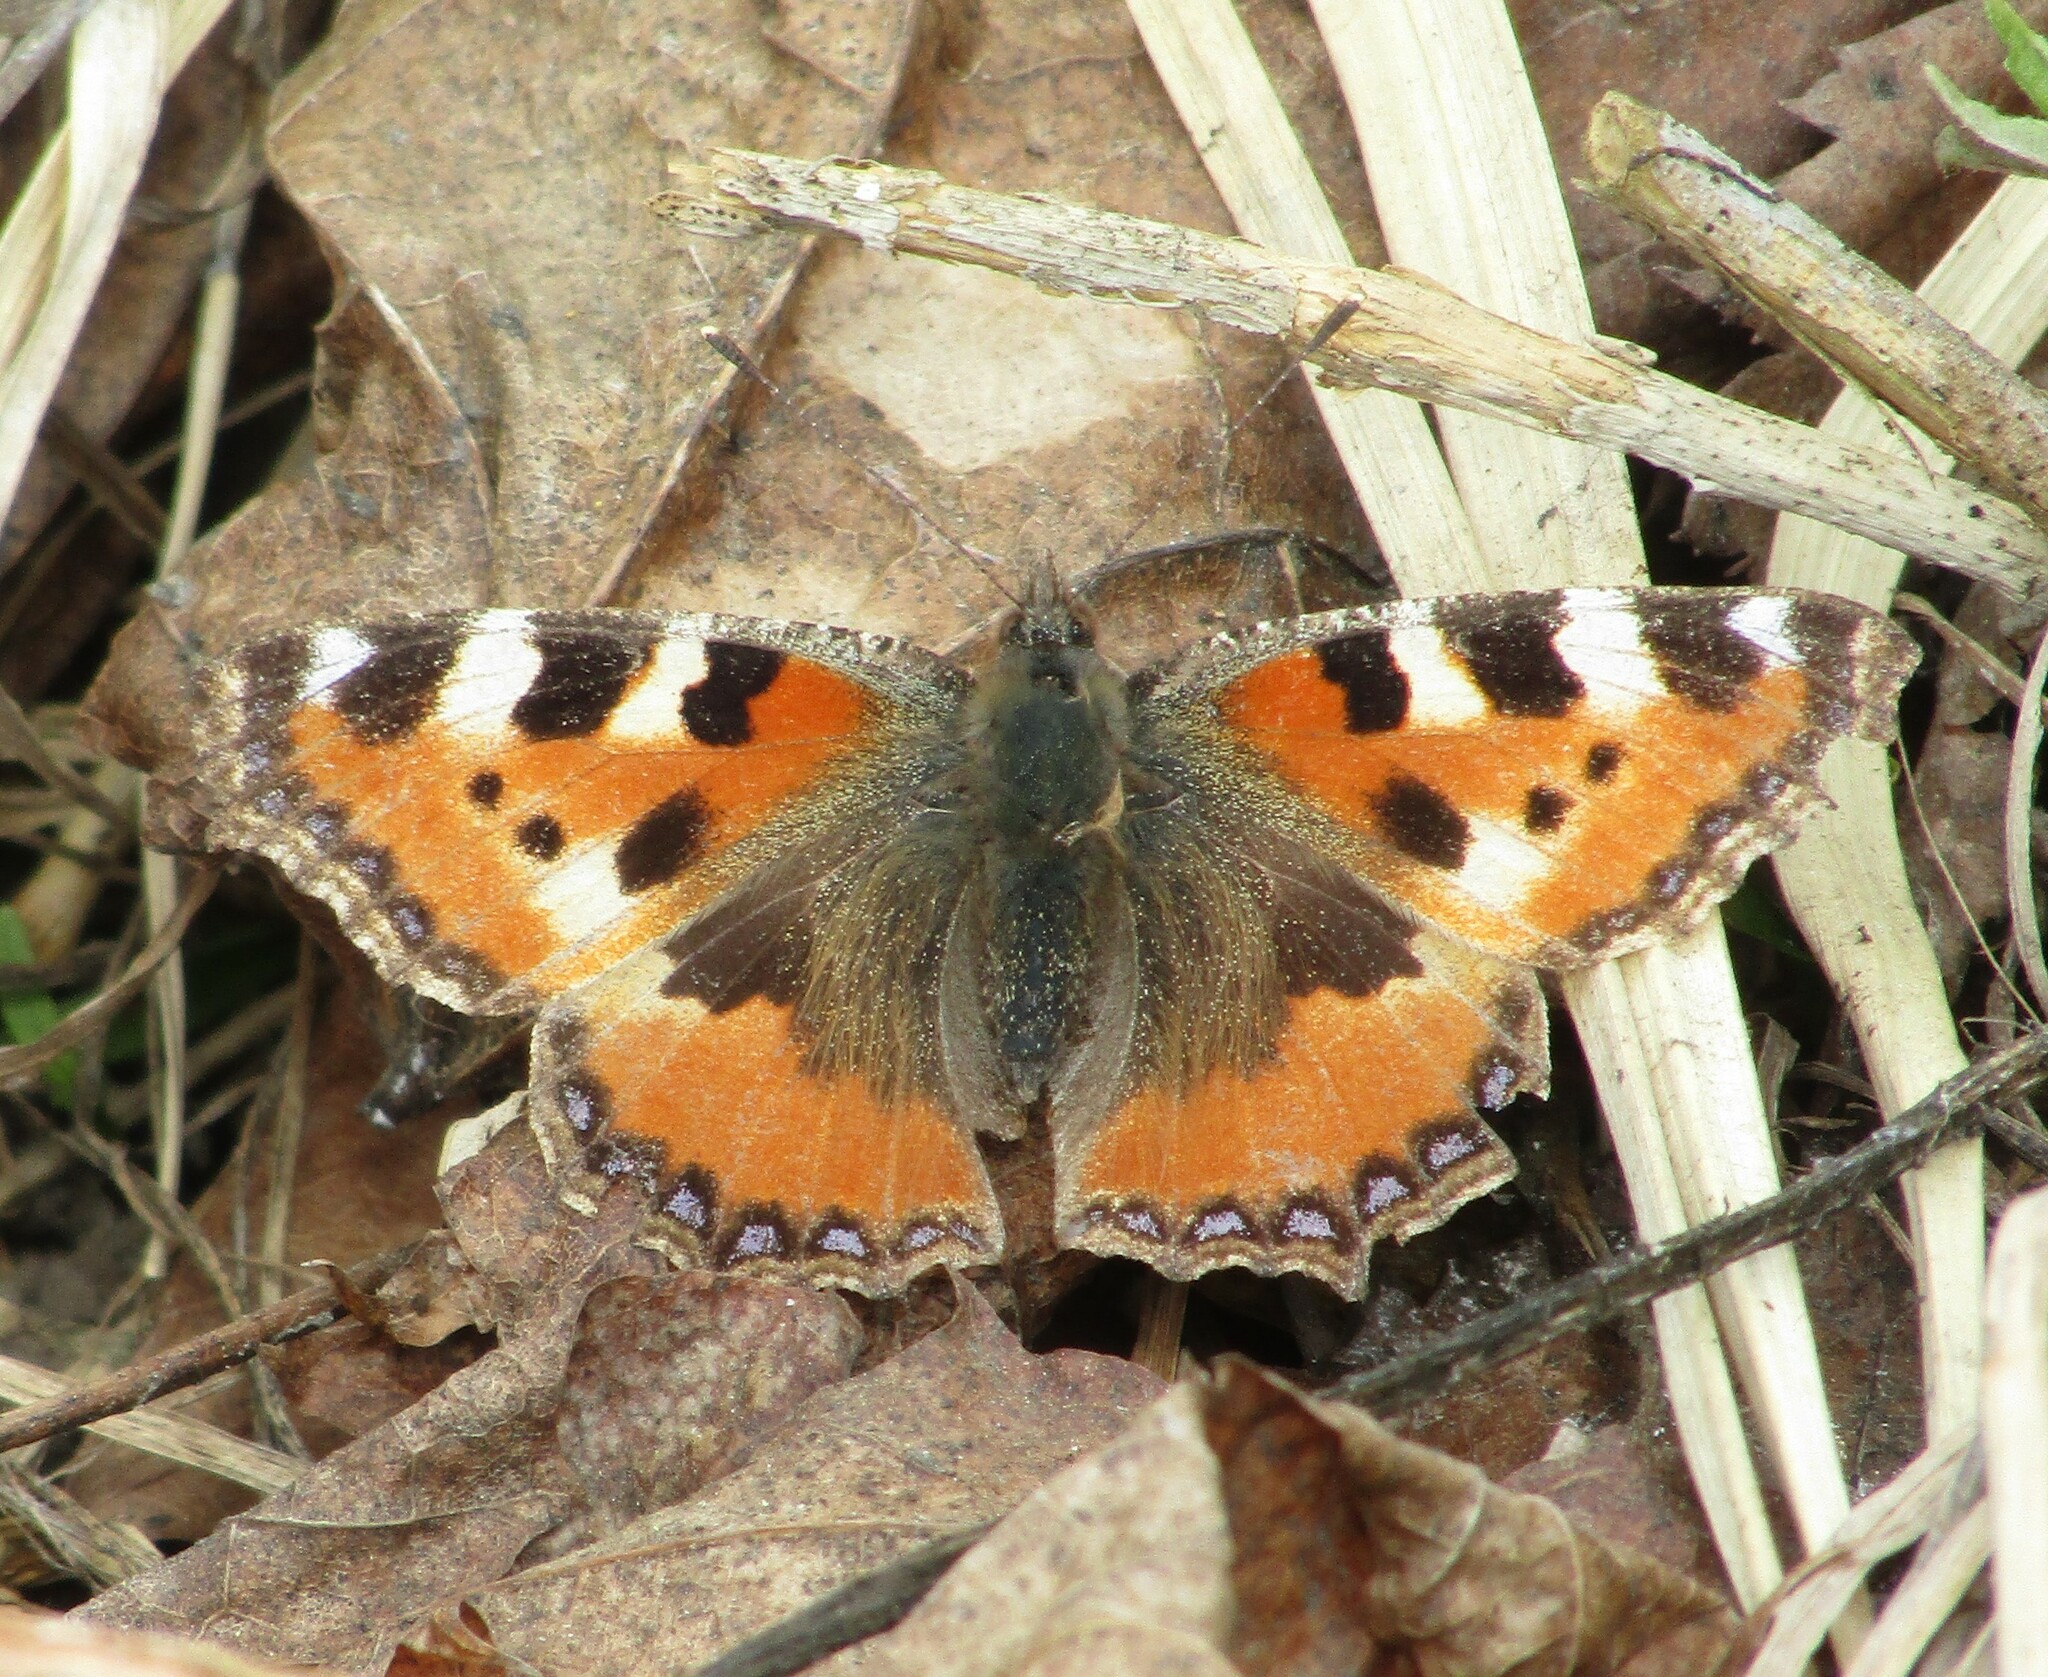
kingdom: Animalia
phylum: Arthropoda
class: Insecta
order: Lepidoptera
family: Nymphalidae
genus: Aglais
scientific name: Aglais urticae
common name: Small tortoiseshell
